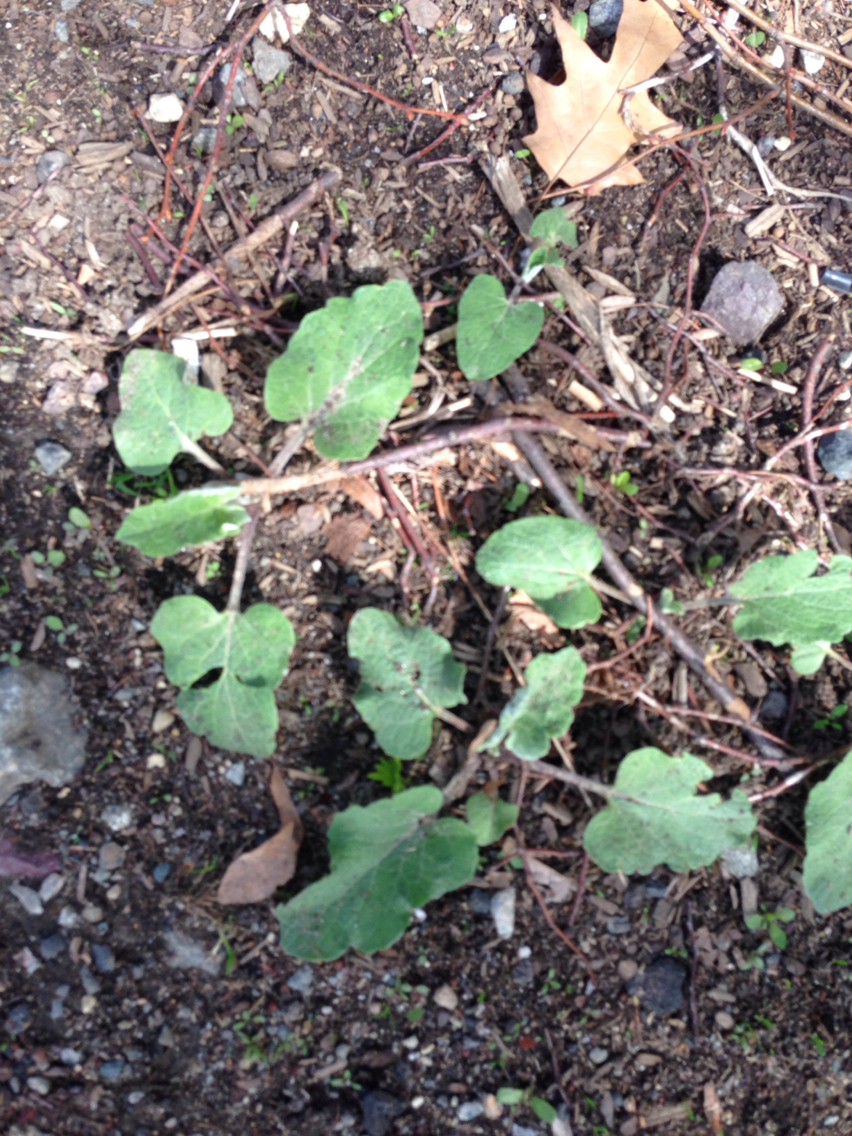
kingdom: Plantae
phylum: Tracheophyta
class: Magnoliopsida
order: Asterales
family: Asteraceae
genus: Arctium
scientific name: Arctium
